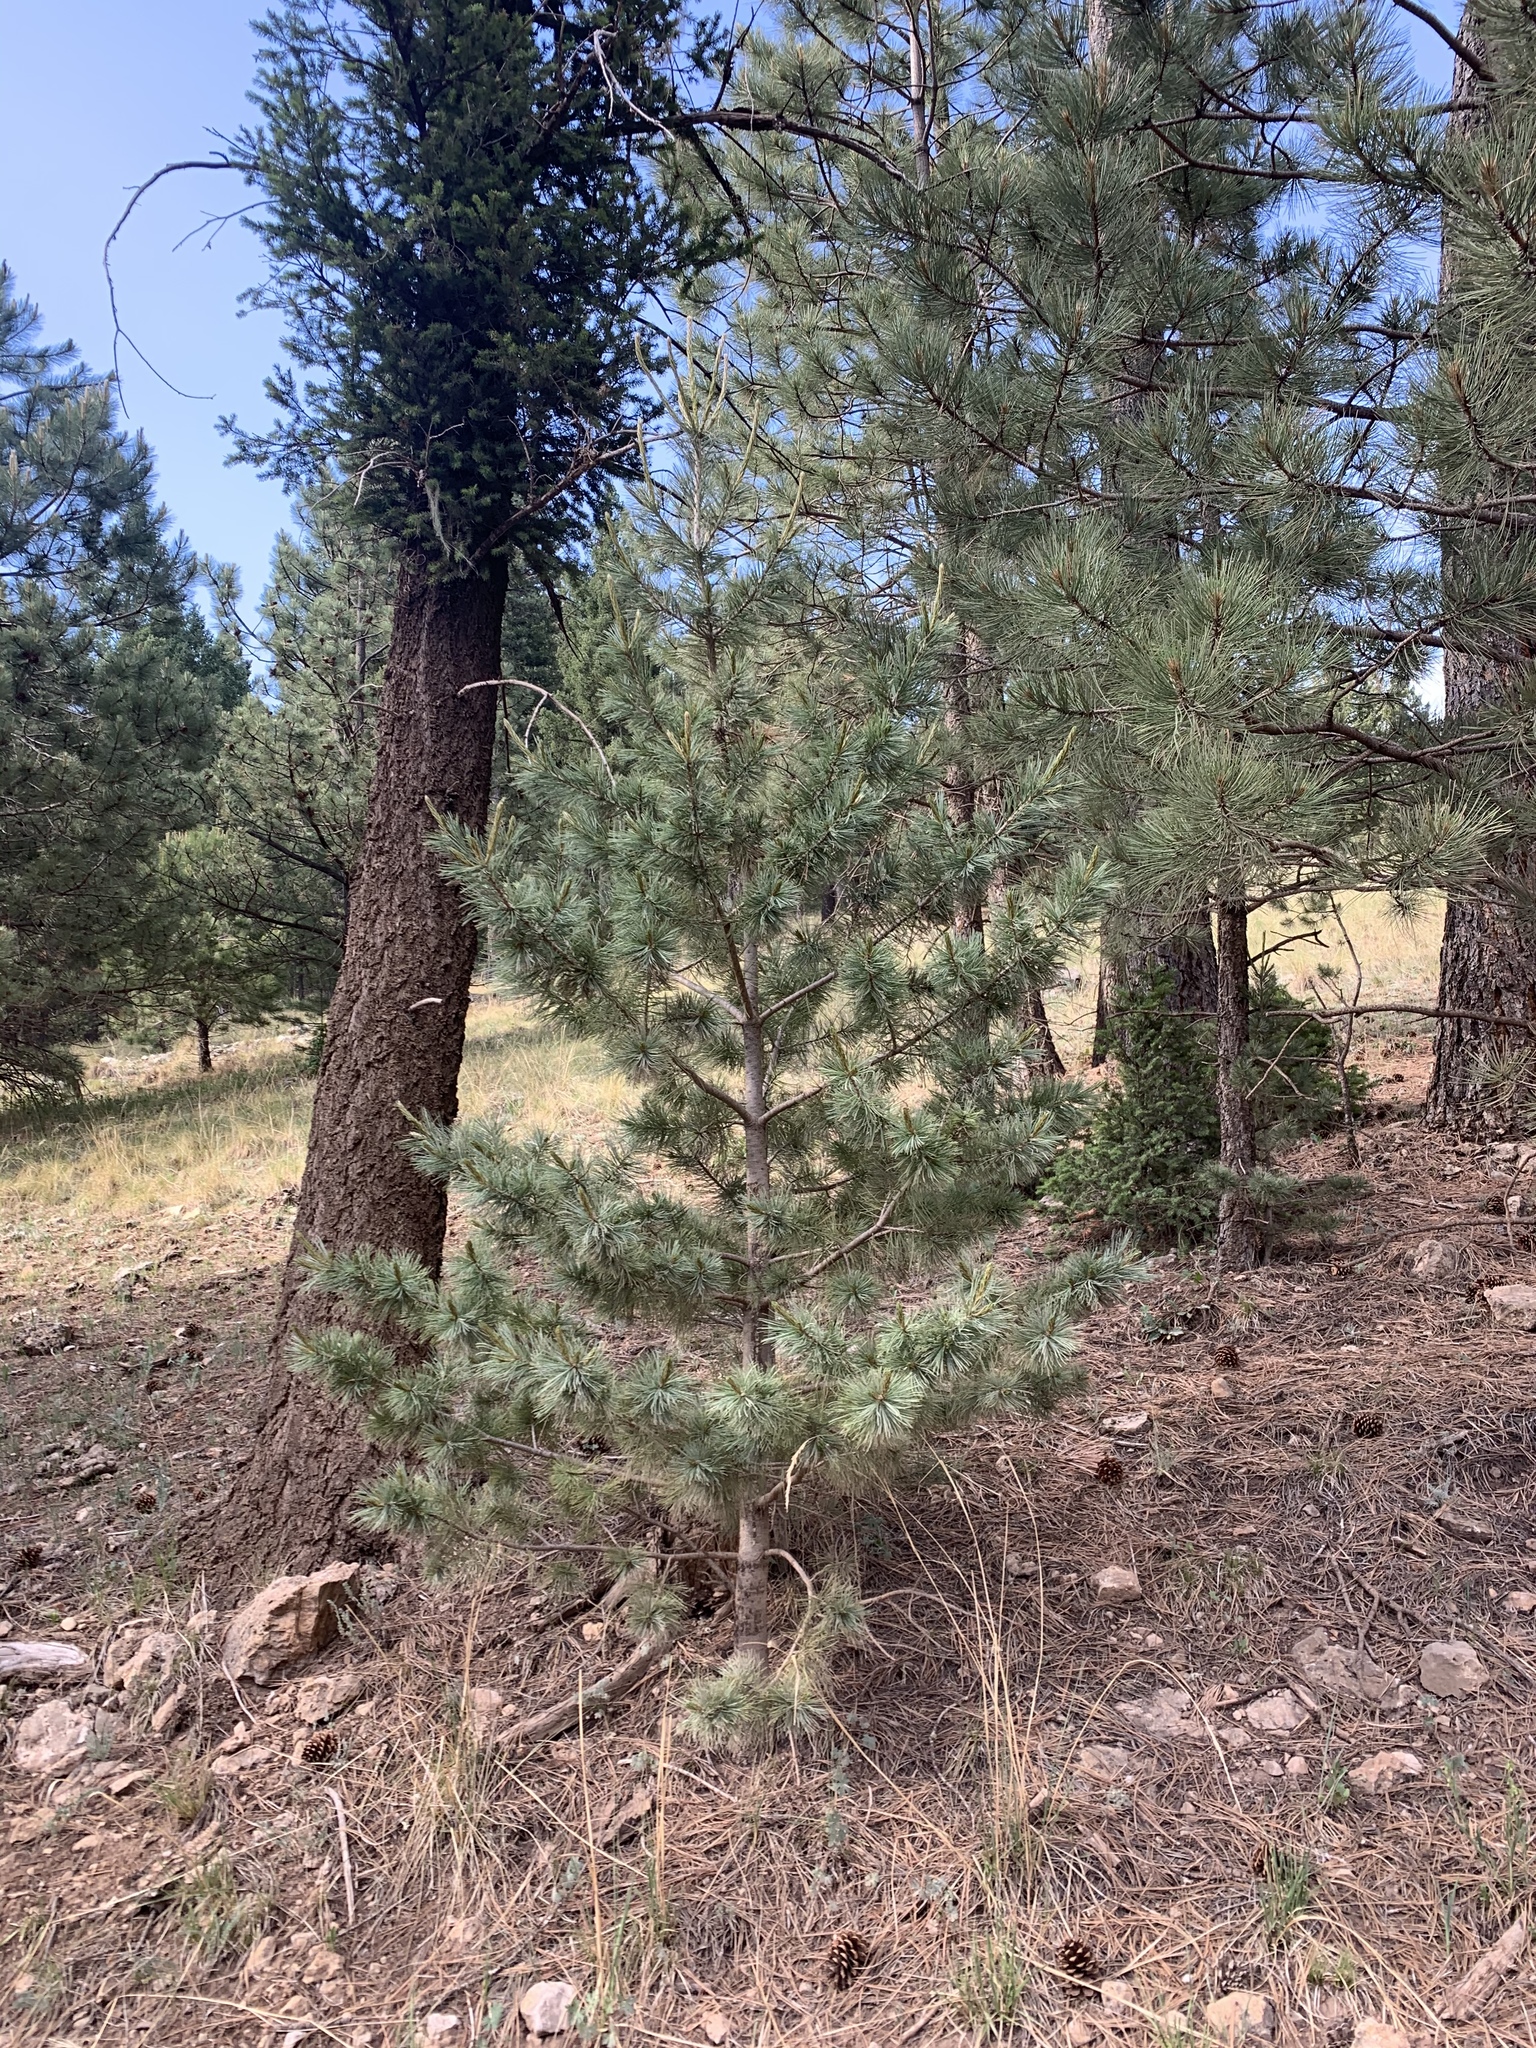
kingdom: Plantae
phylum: Tracheophyta
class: Pinopsida
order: Pinales
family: Pinaceae
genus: Pinus
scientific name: Pinus strobiformis
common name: Southwestern white pine
